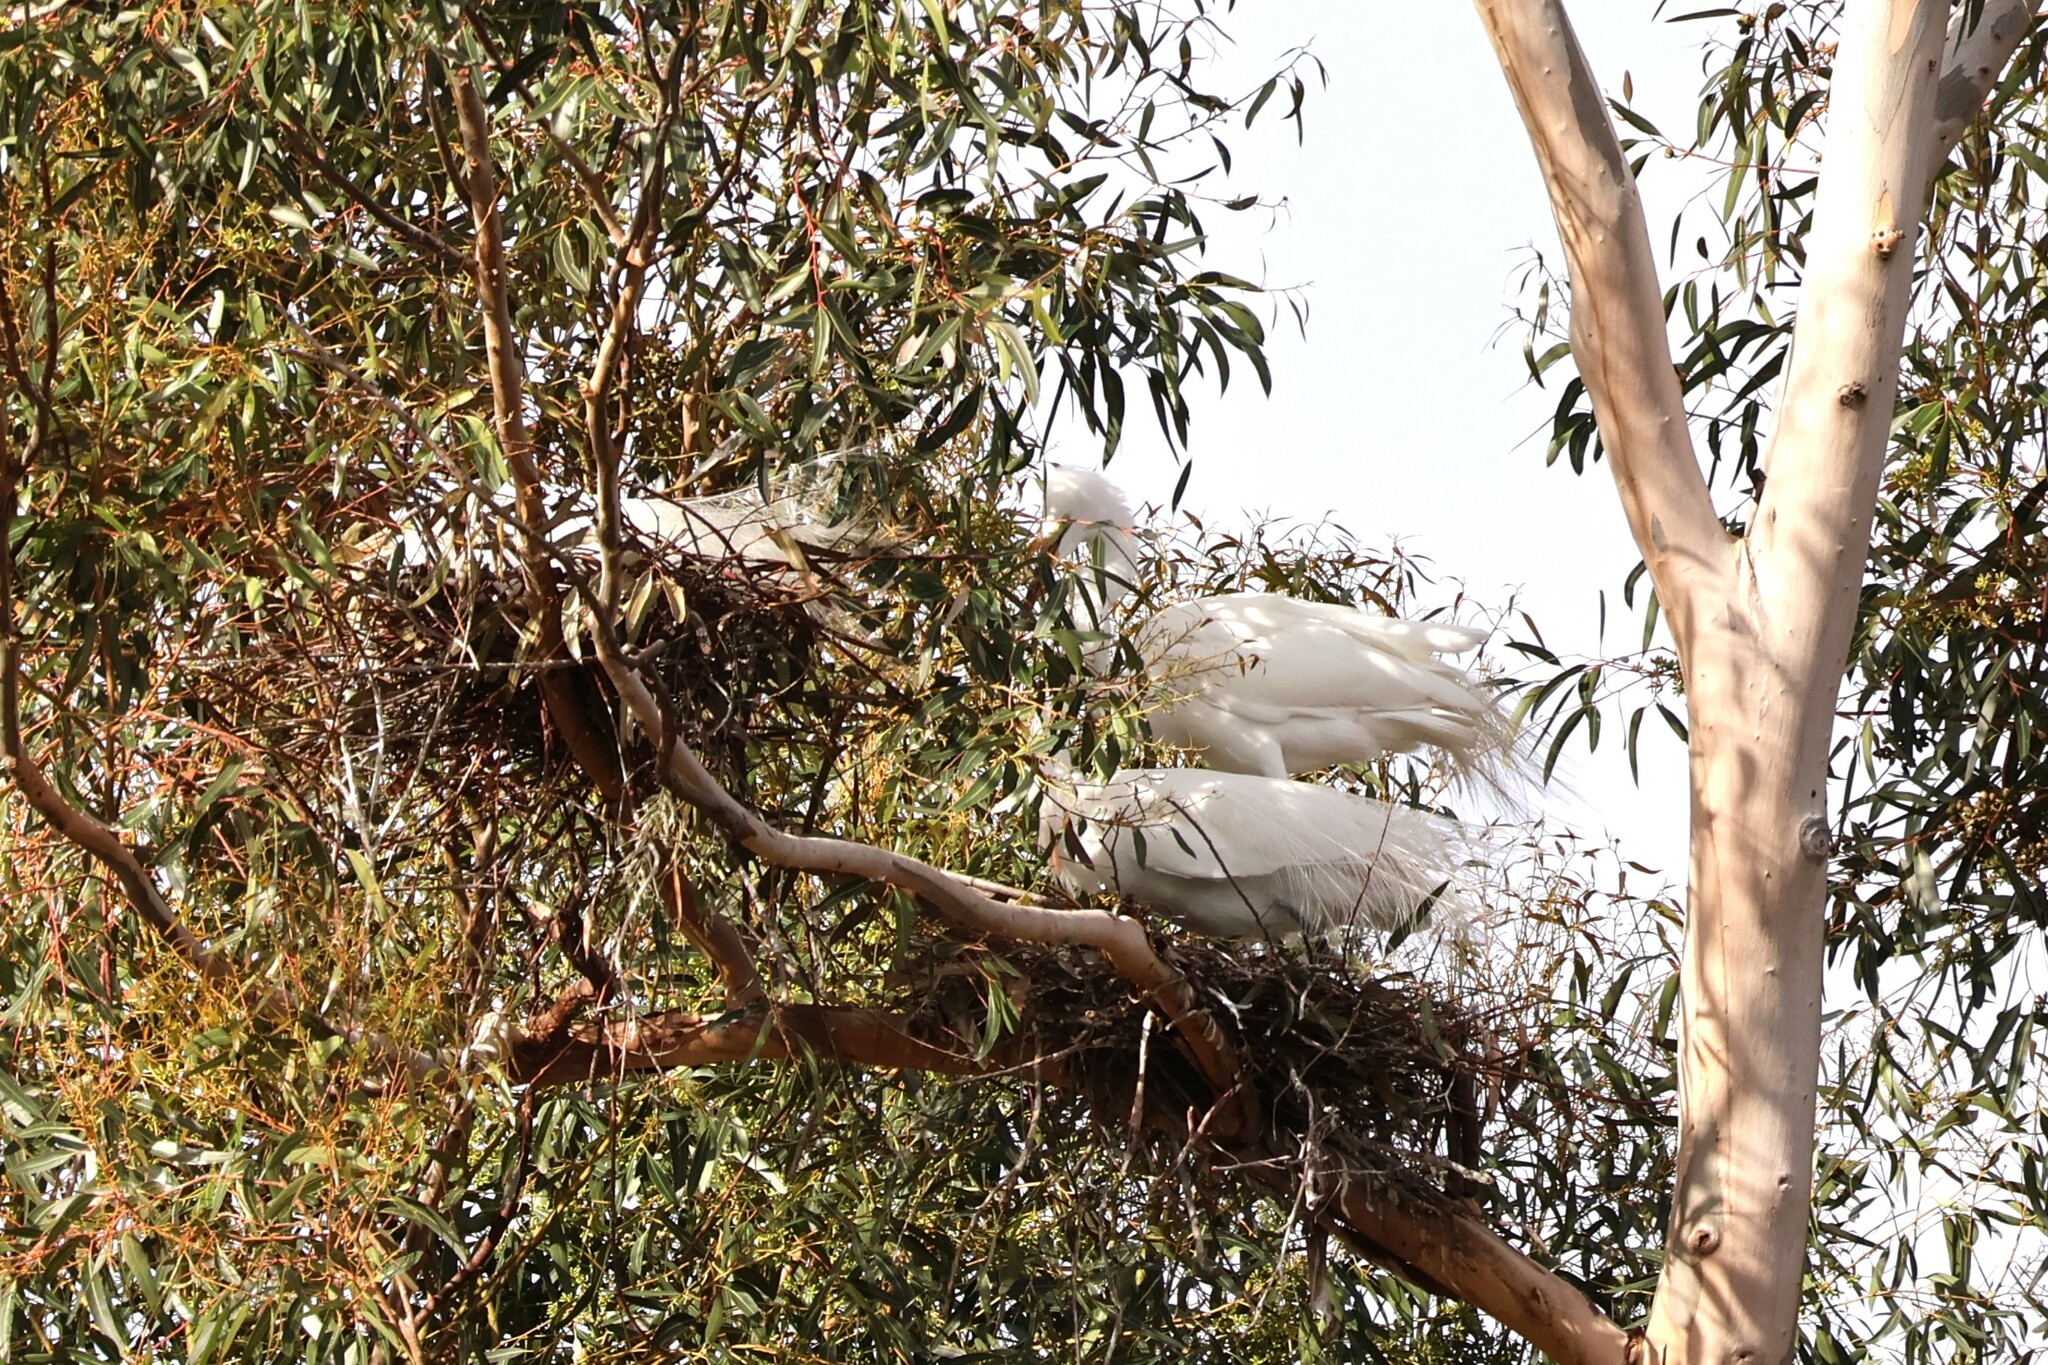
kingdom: Animalia
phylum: Chordata
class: Aves
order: Pelecaniformes
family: Ardeidae
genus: Ardea
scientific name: Ardea alba
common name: Great egret
